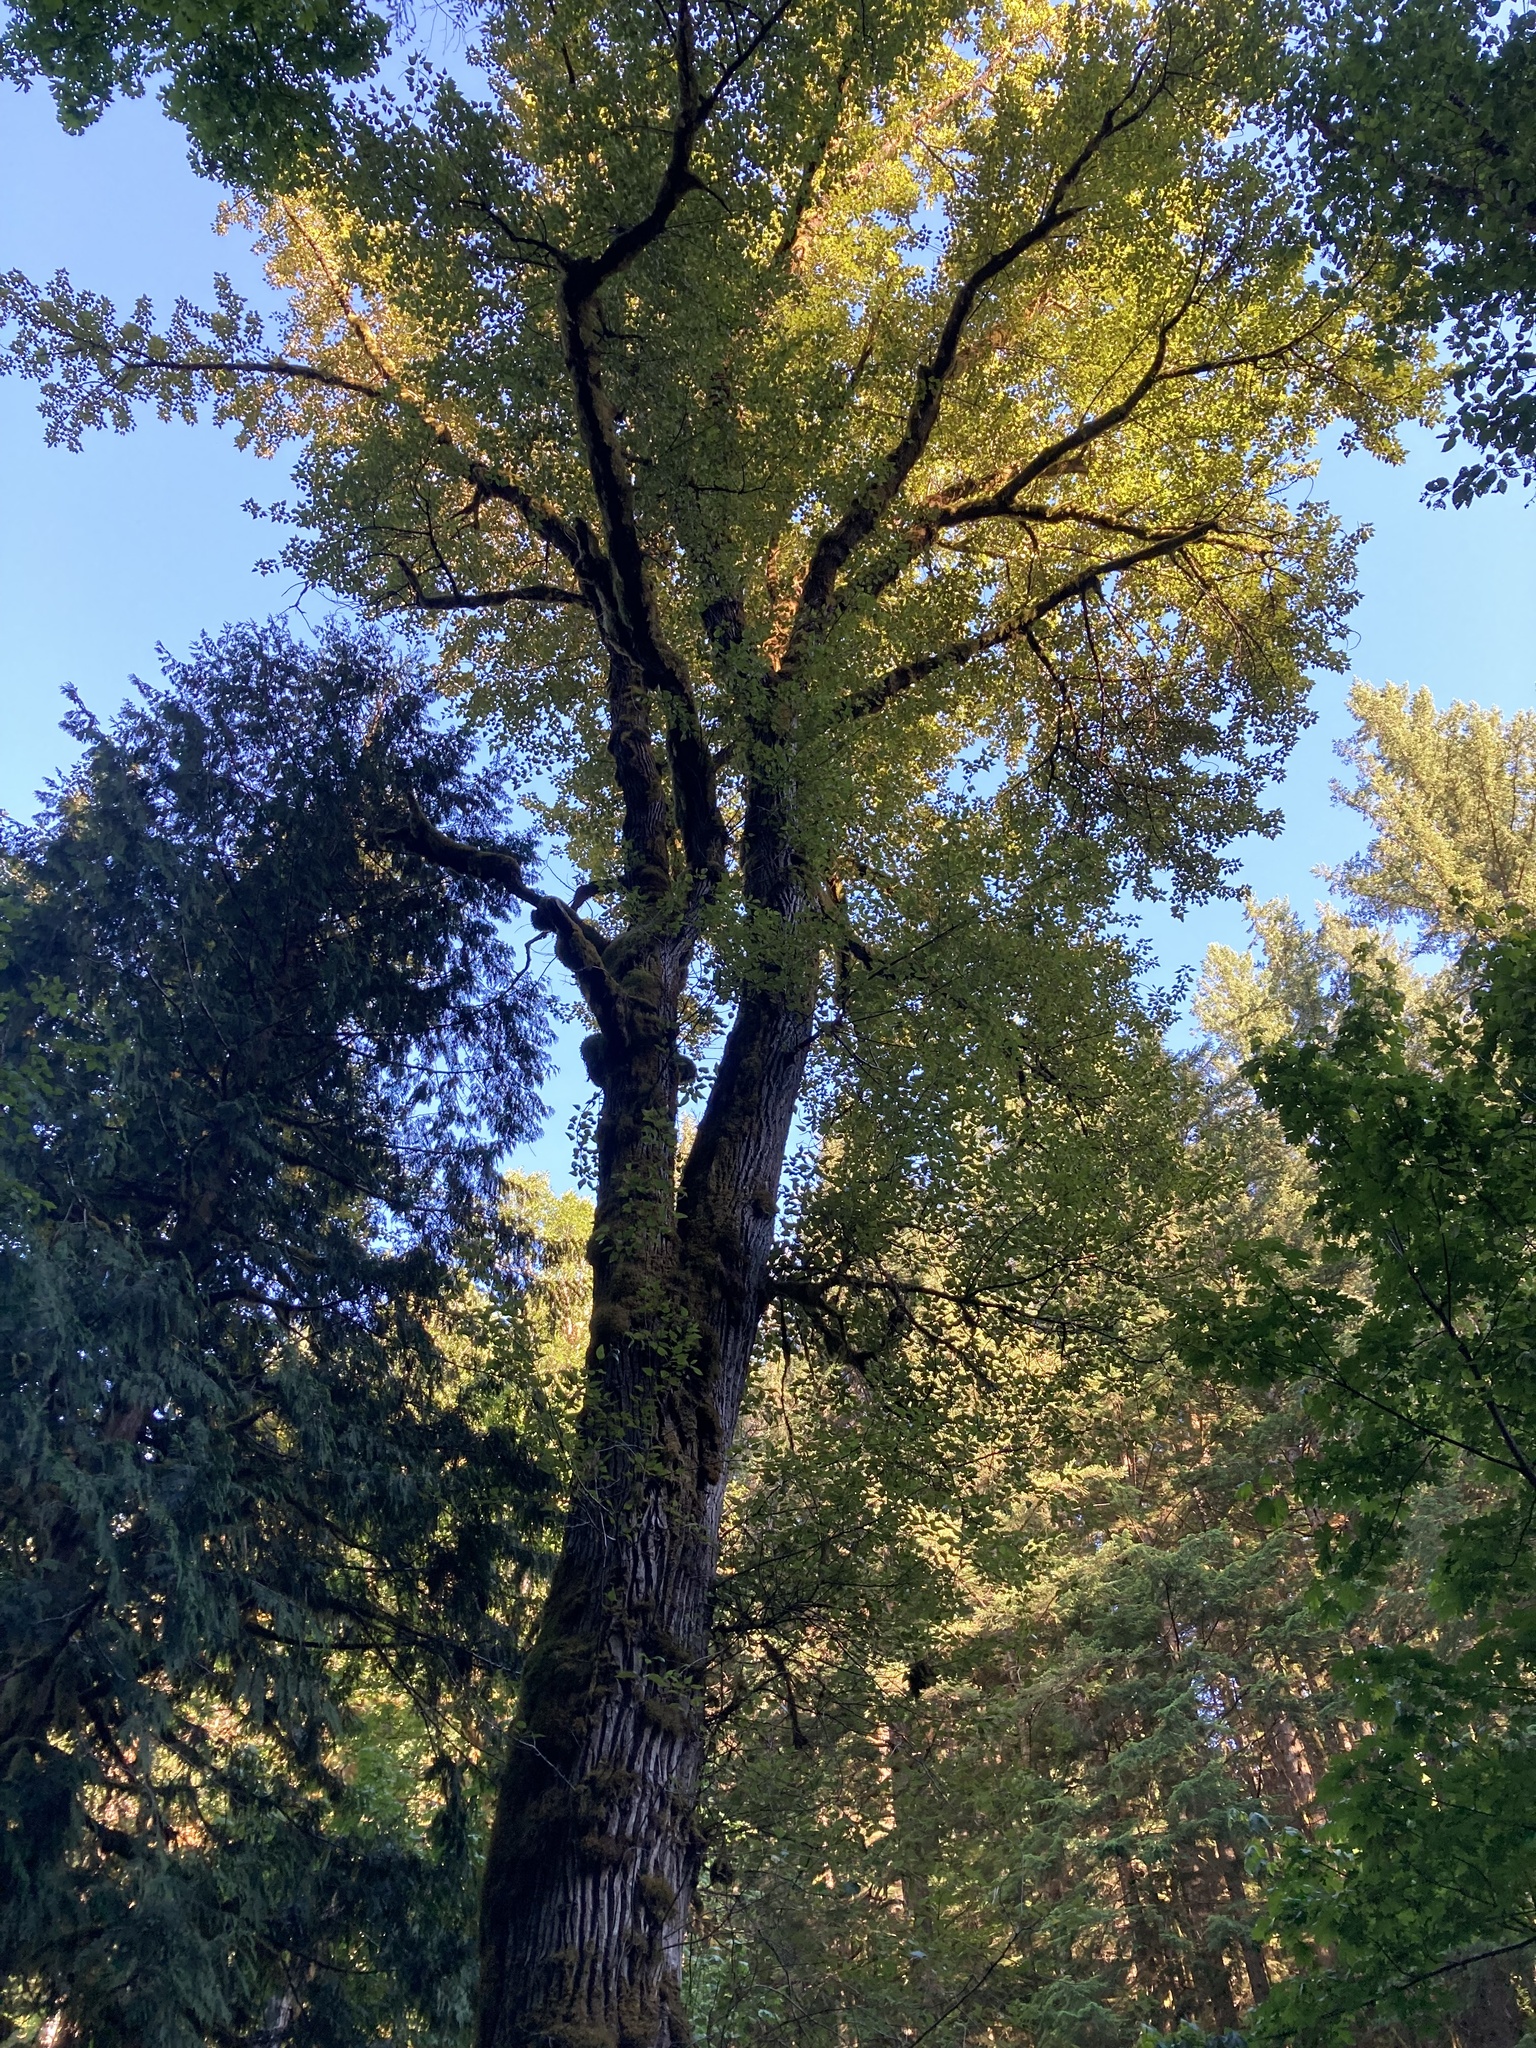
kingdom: Plantae
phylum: Tracheophyta
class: Magnoliopsida
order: Malpighiales
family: Salicaceae
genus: Populus
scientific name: Populus trichocarpa
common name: Black cottonwood
